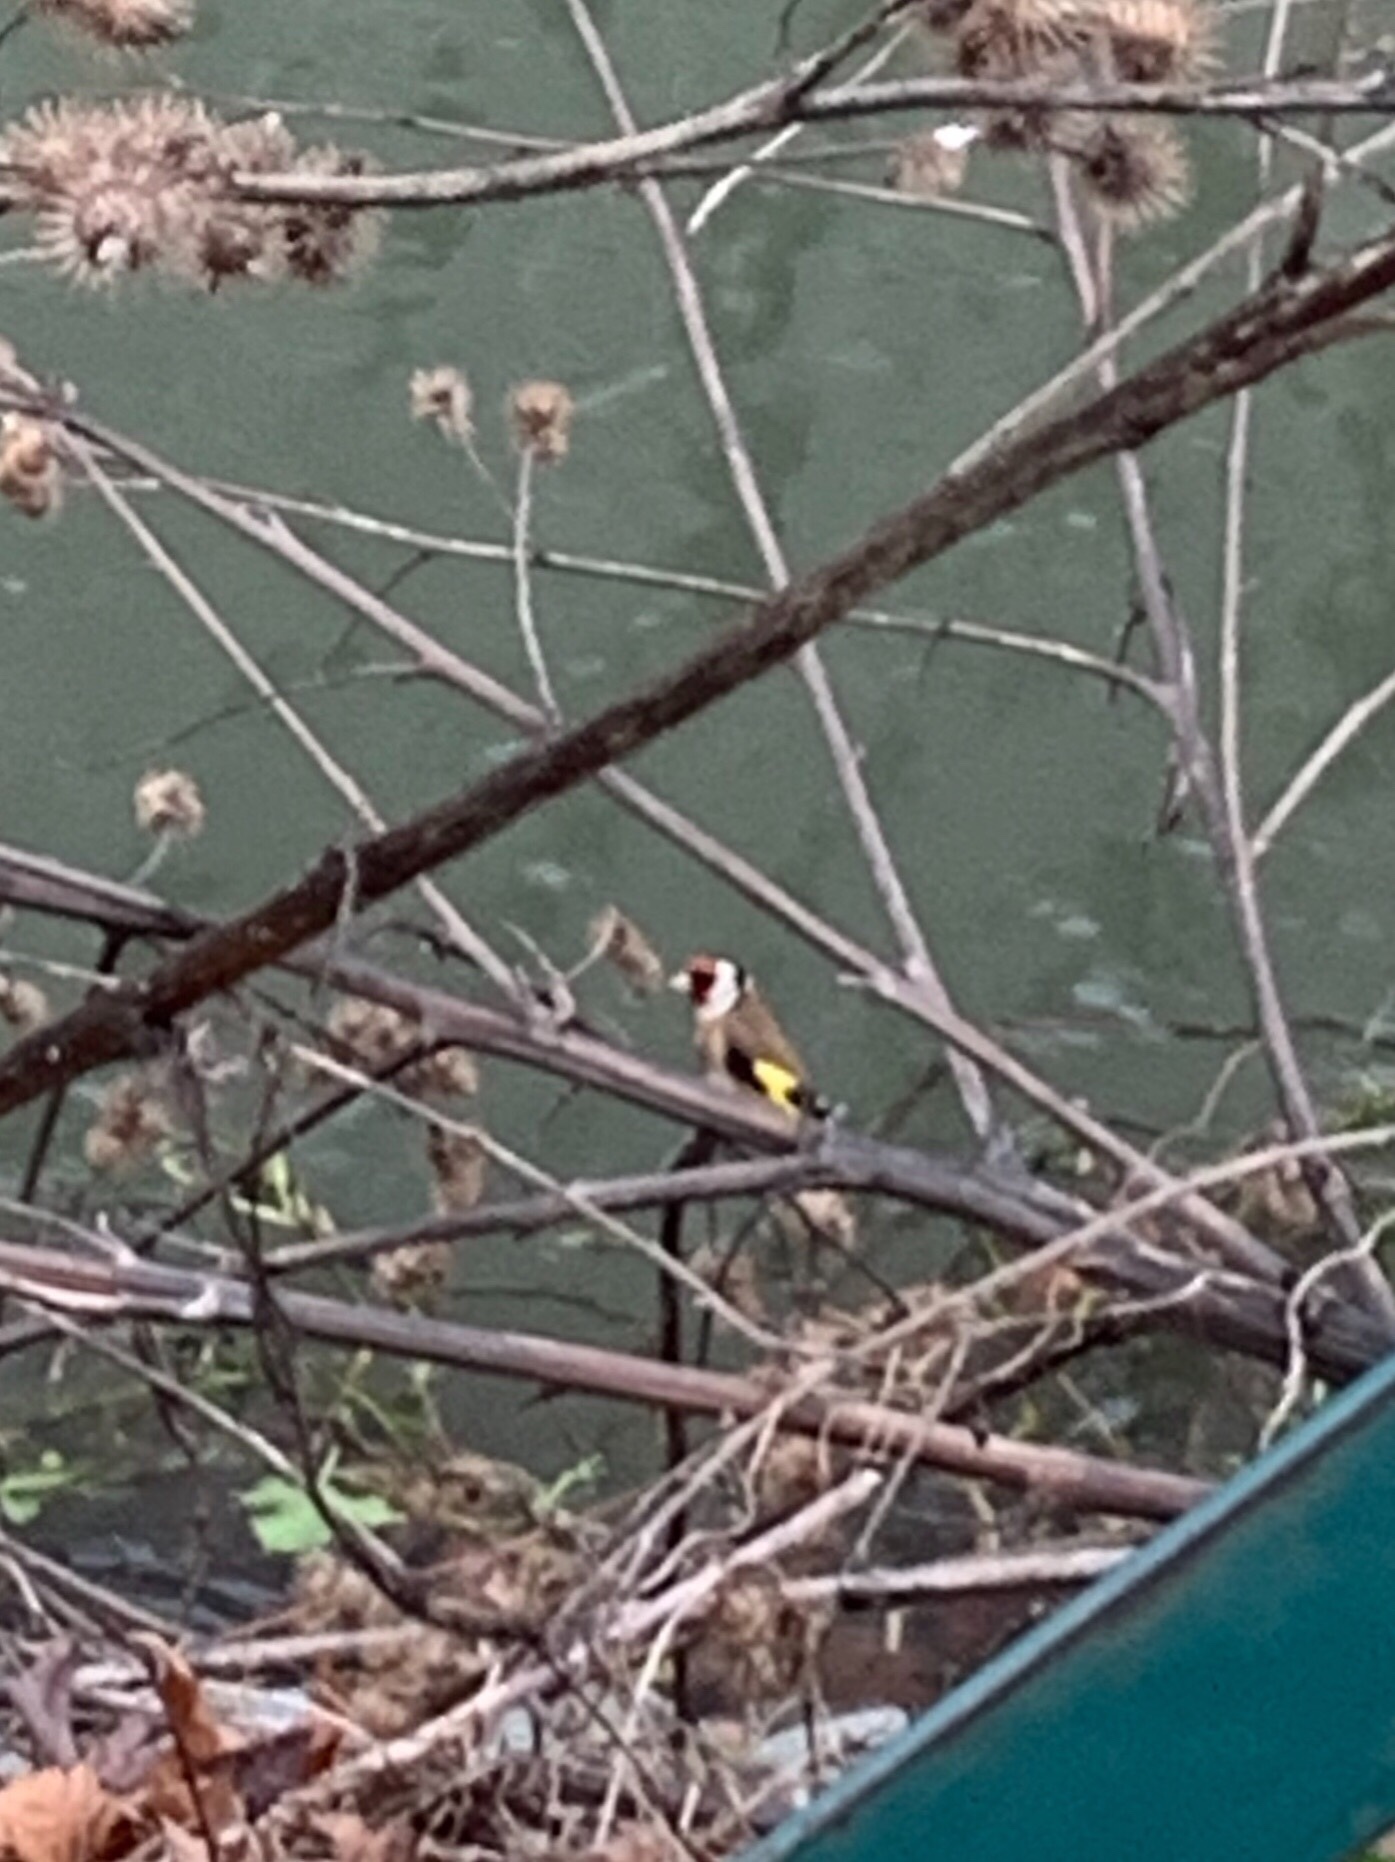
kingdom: Animalia
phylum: Chordata
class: Aves
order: Passeriformes
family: Fringillidae
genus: Carduelis
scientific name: Carduelis carduelis
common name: European goldfinch
